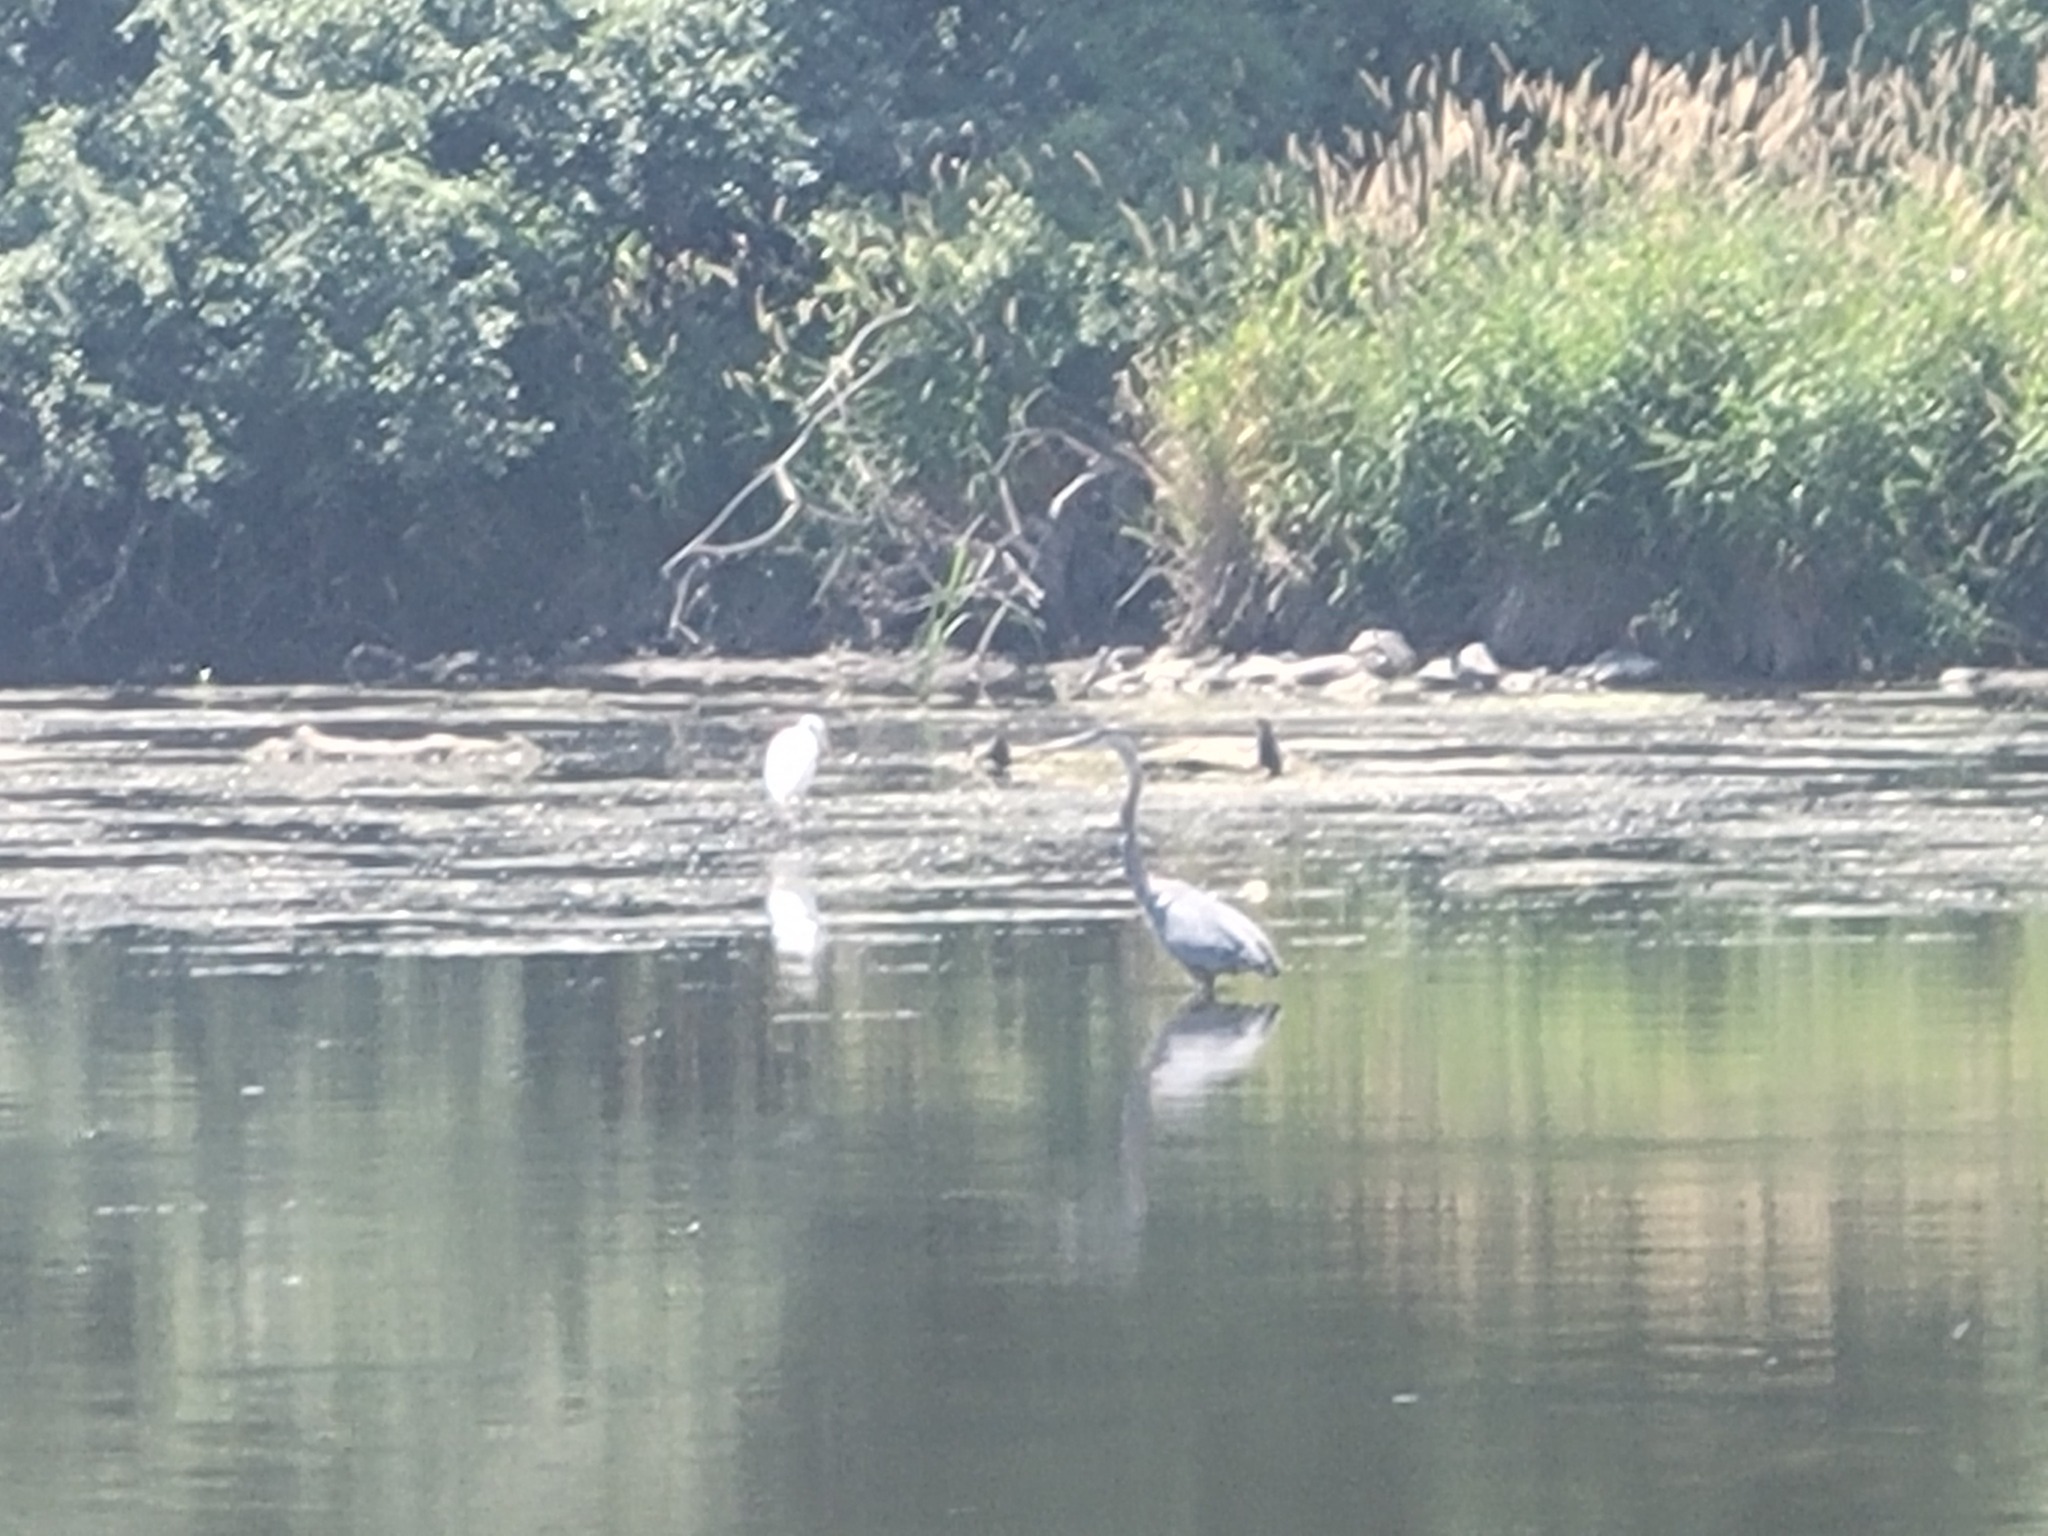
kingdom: Animalia
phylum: Chordata
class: Aves
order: Pelecaniformes
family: Ardeidae
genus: Ardea
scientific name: Ardea herodias
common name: Great blue heron
